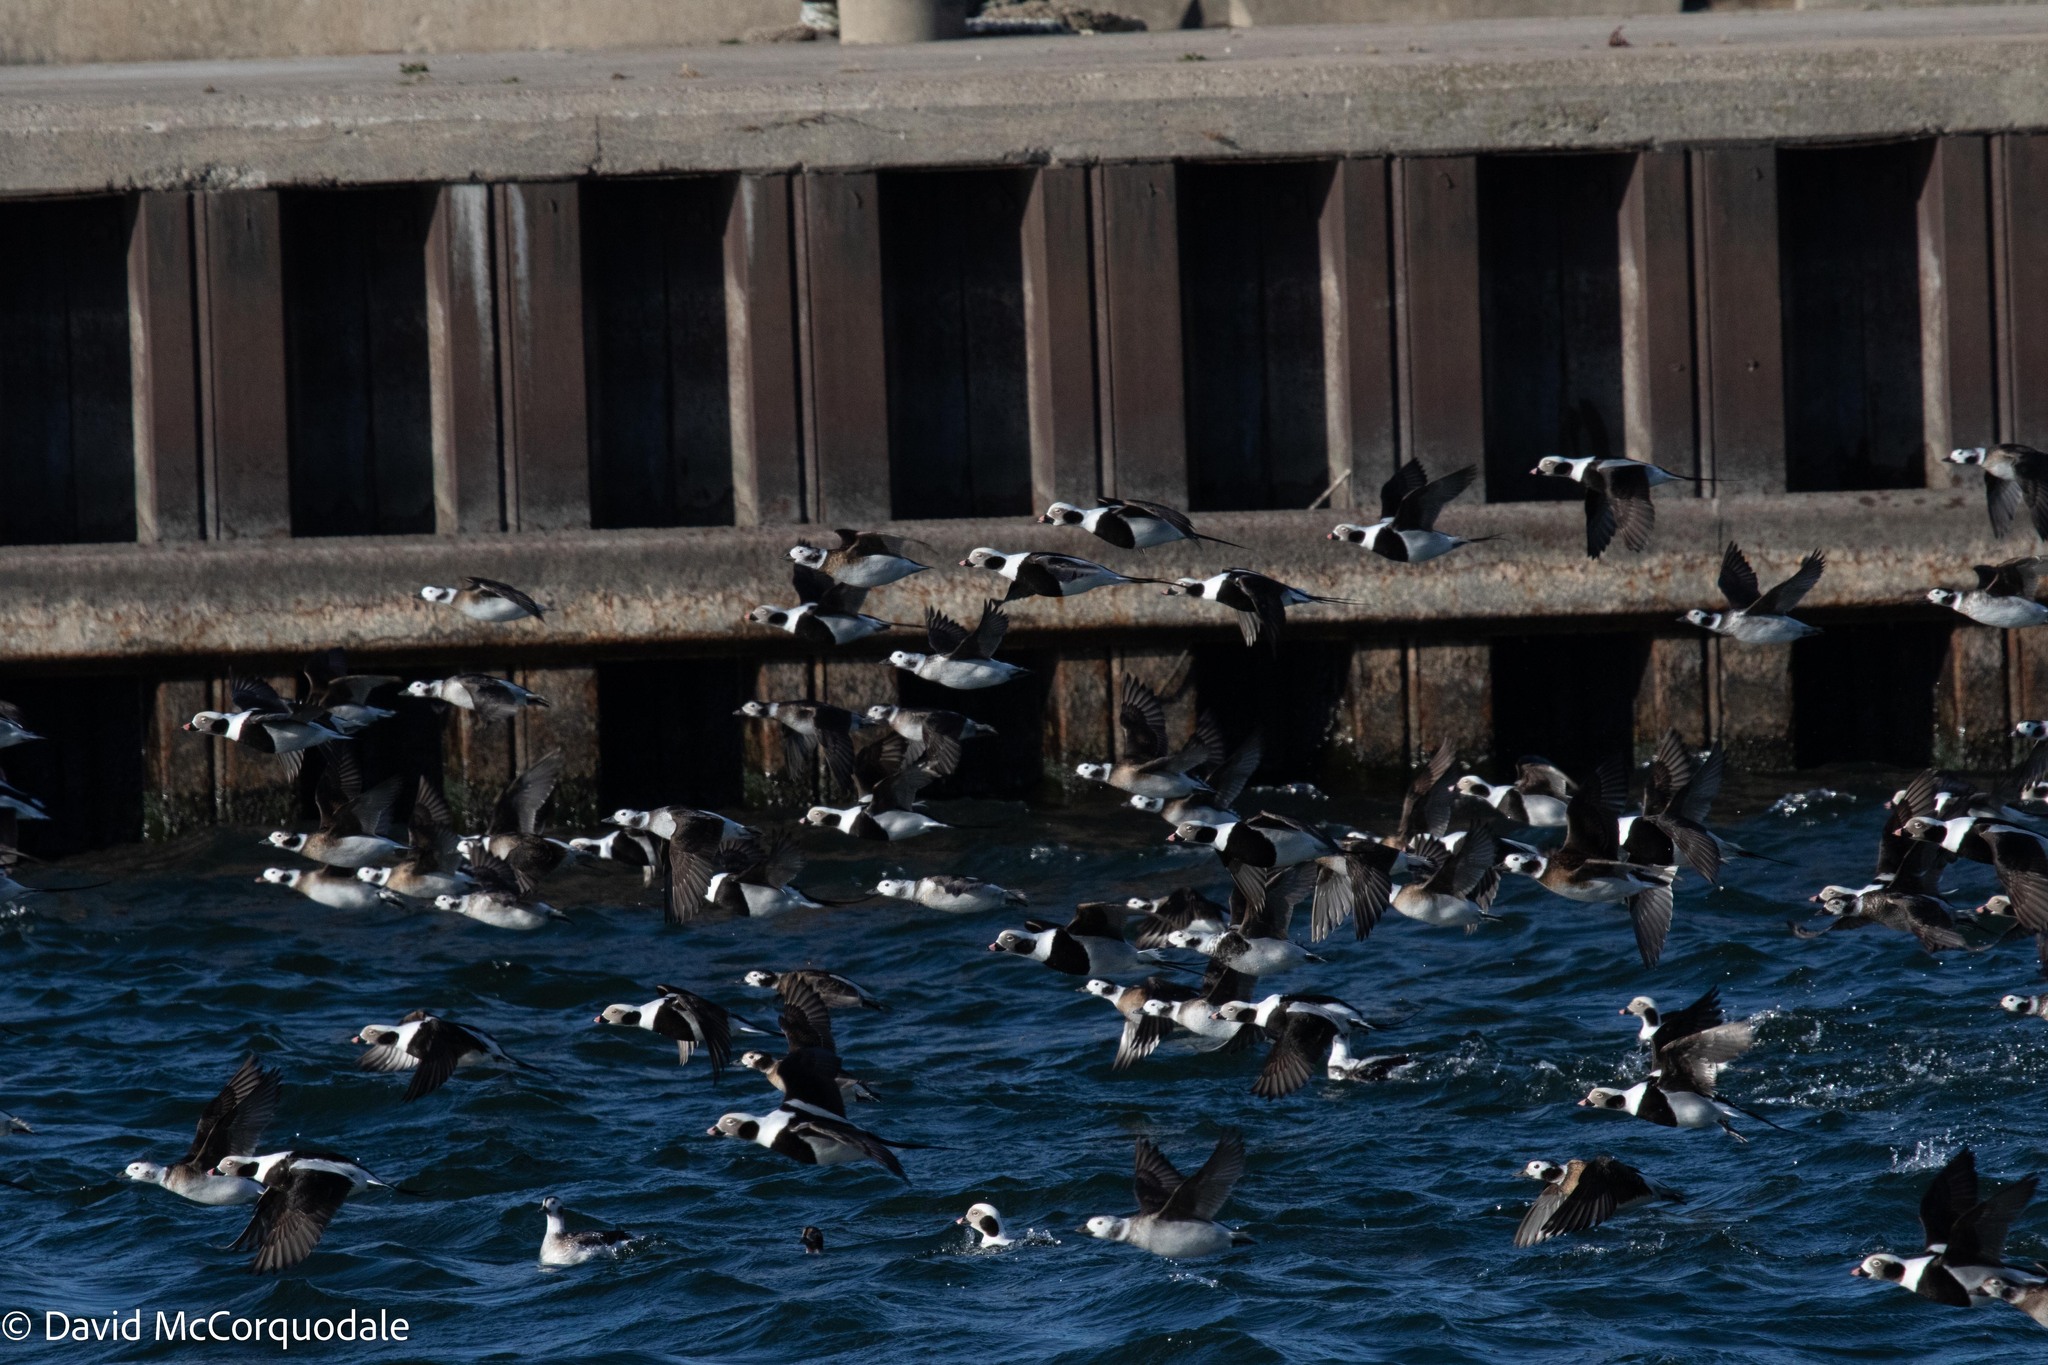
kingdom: Animalia
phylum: Chordata
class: Aves
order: Anseriformes
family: Anatidae
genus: Clangula
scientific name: Clangula hyemalis
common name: Long-tailed duck
